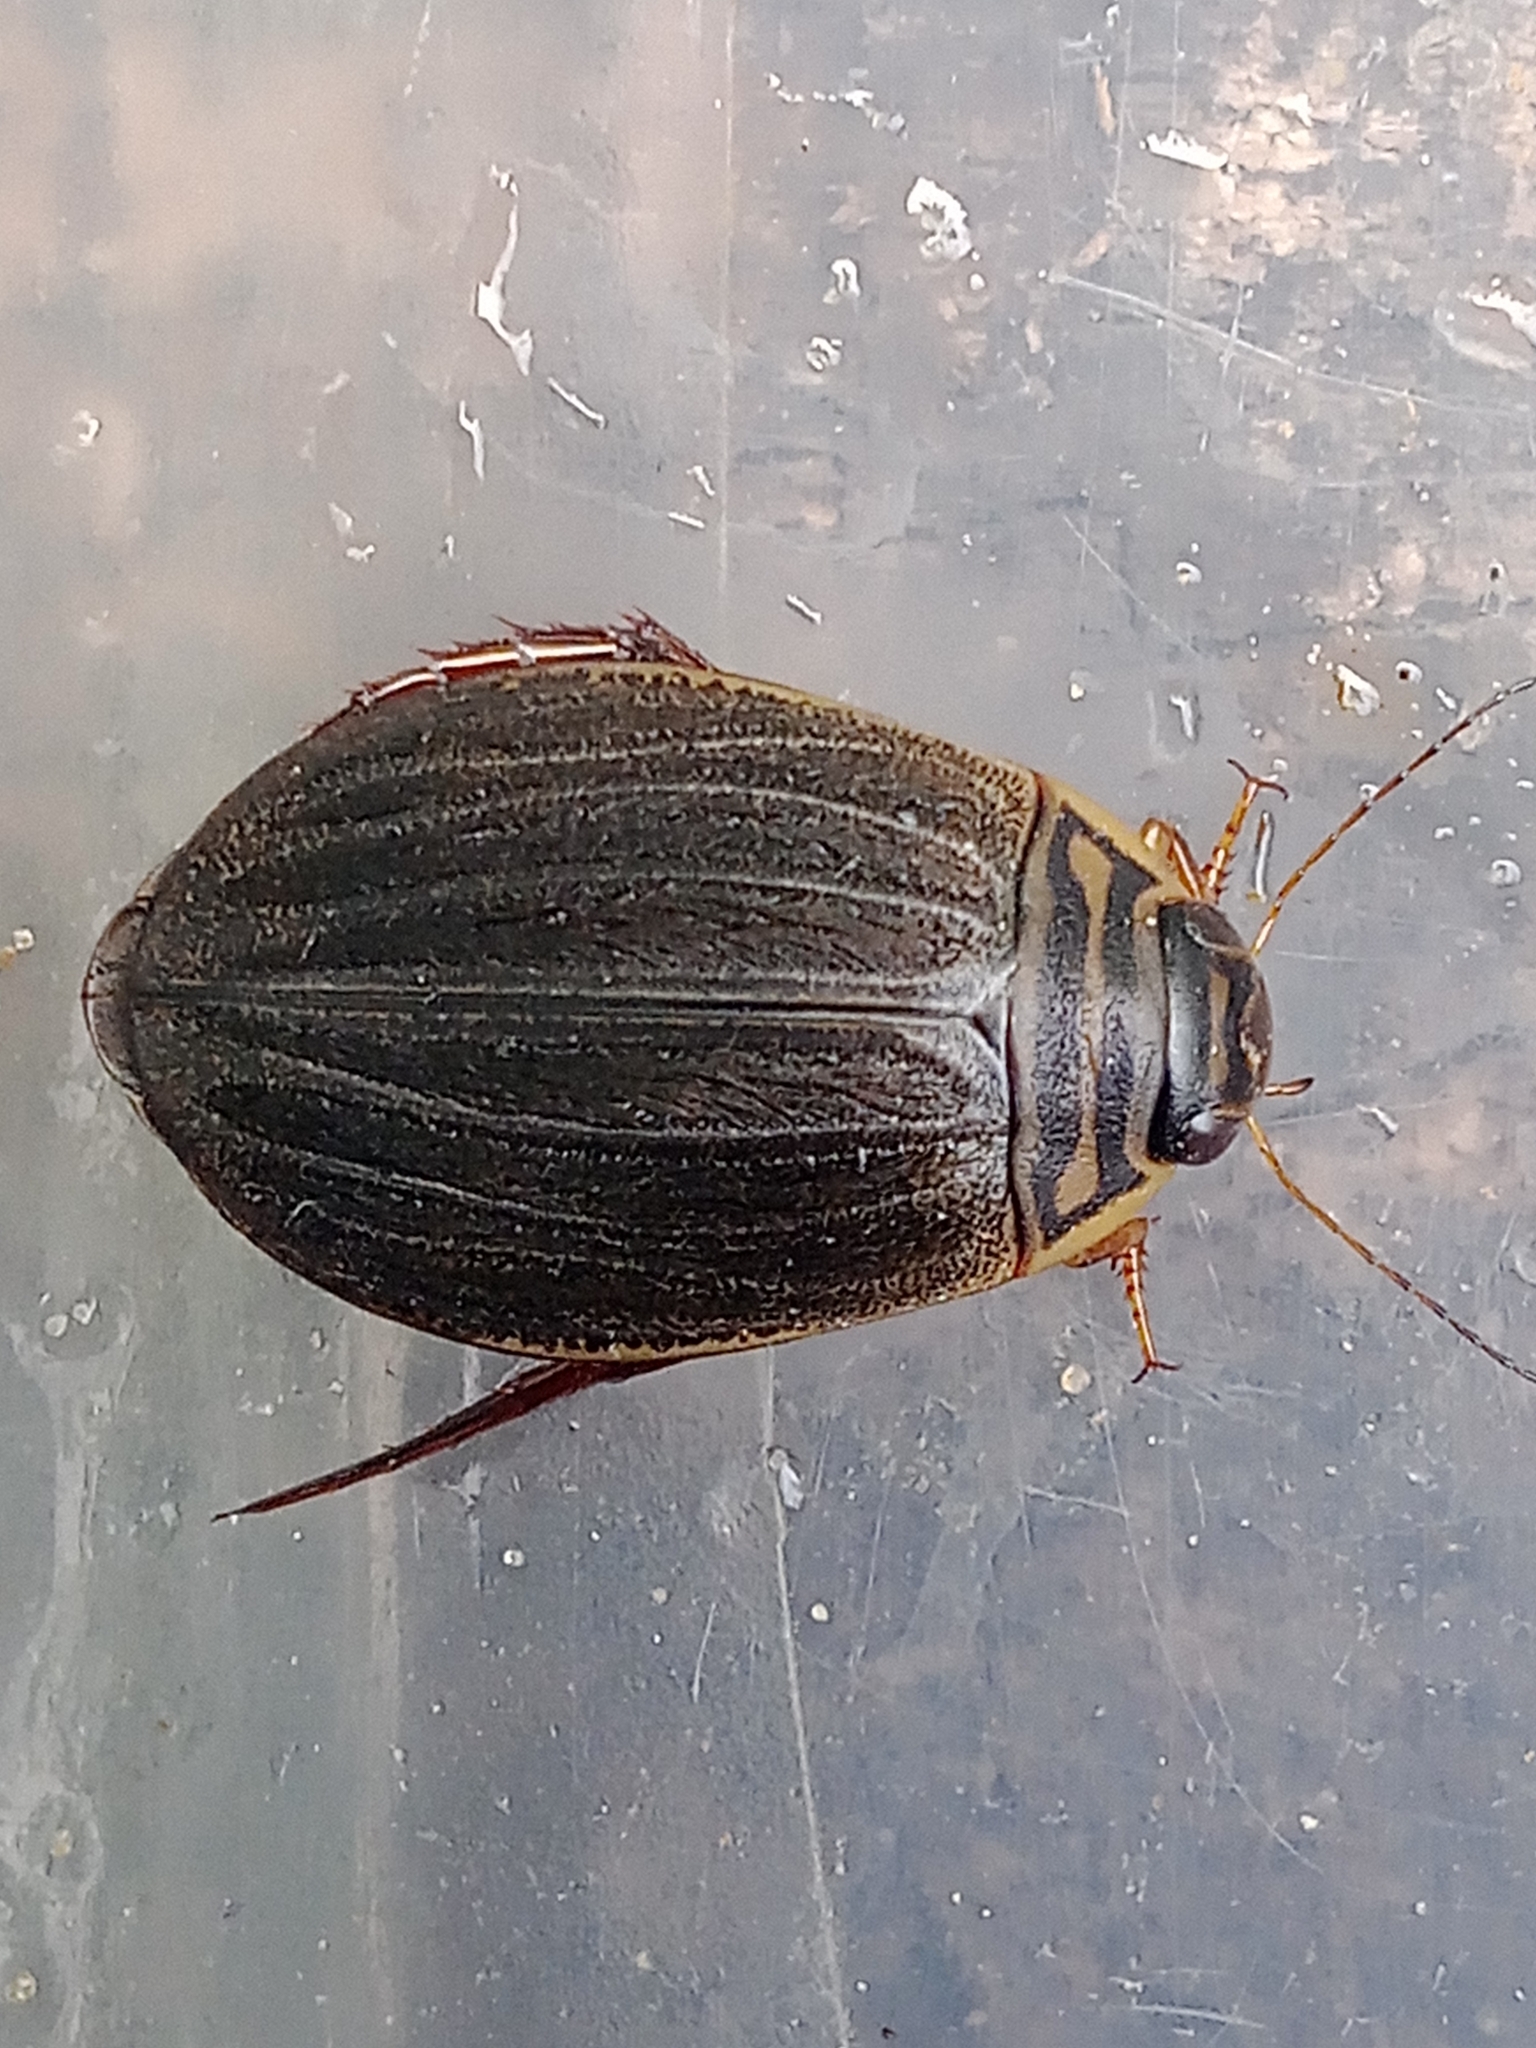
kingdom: Animalia
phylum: Arthropoda
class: Insecta
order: Coleoptera
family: Dytiscidae
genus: Acilius
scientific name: Acilius canaliculatus
